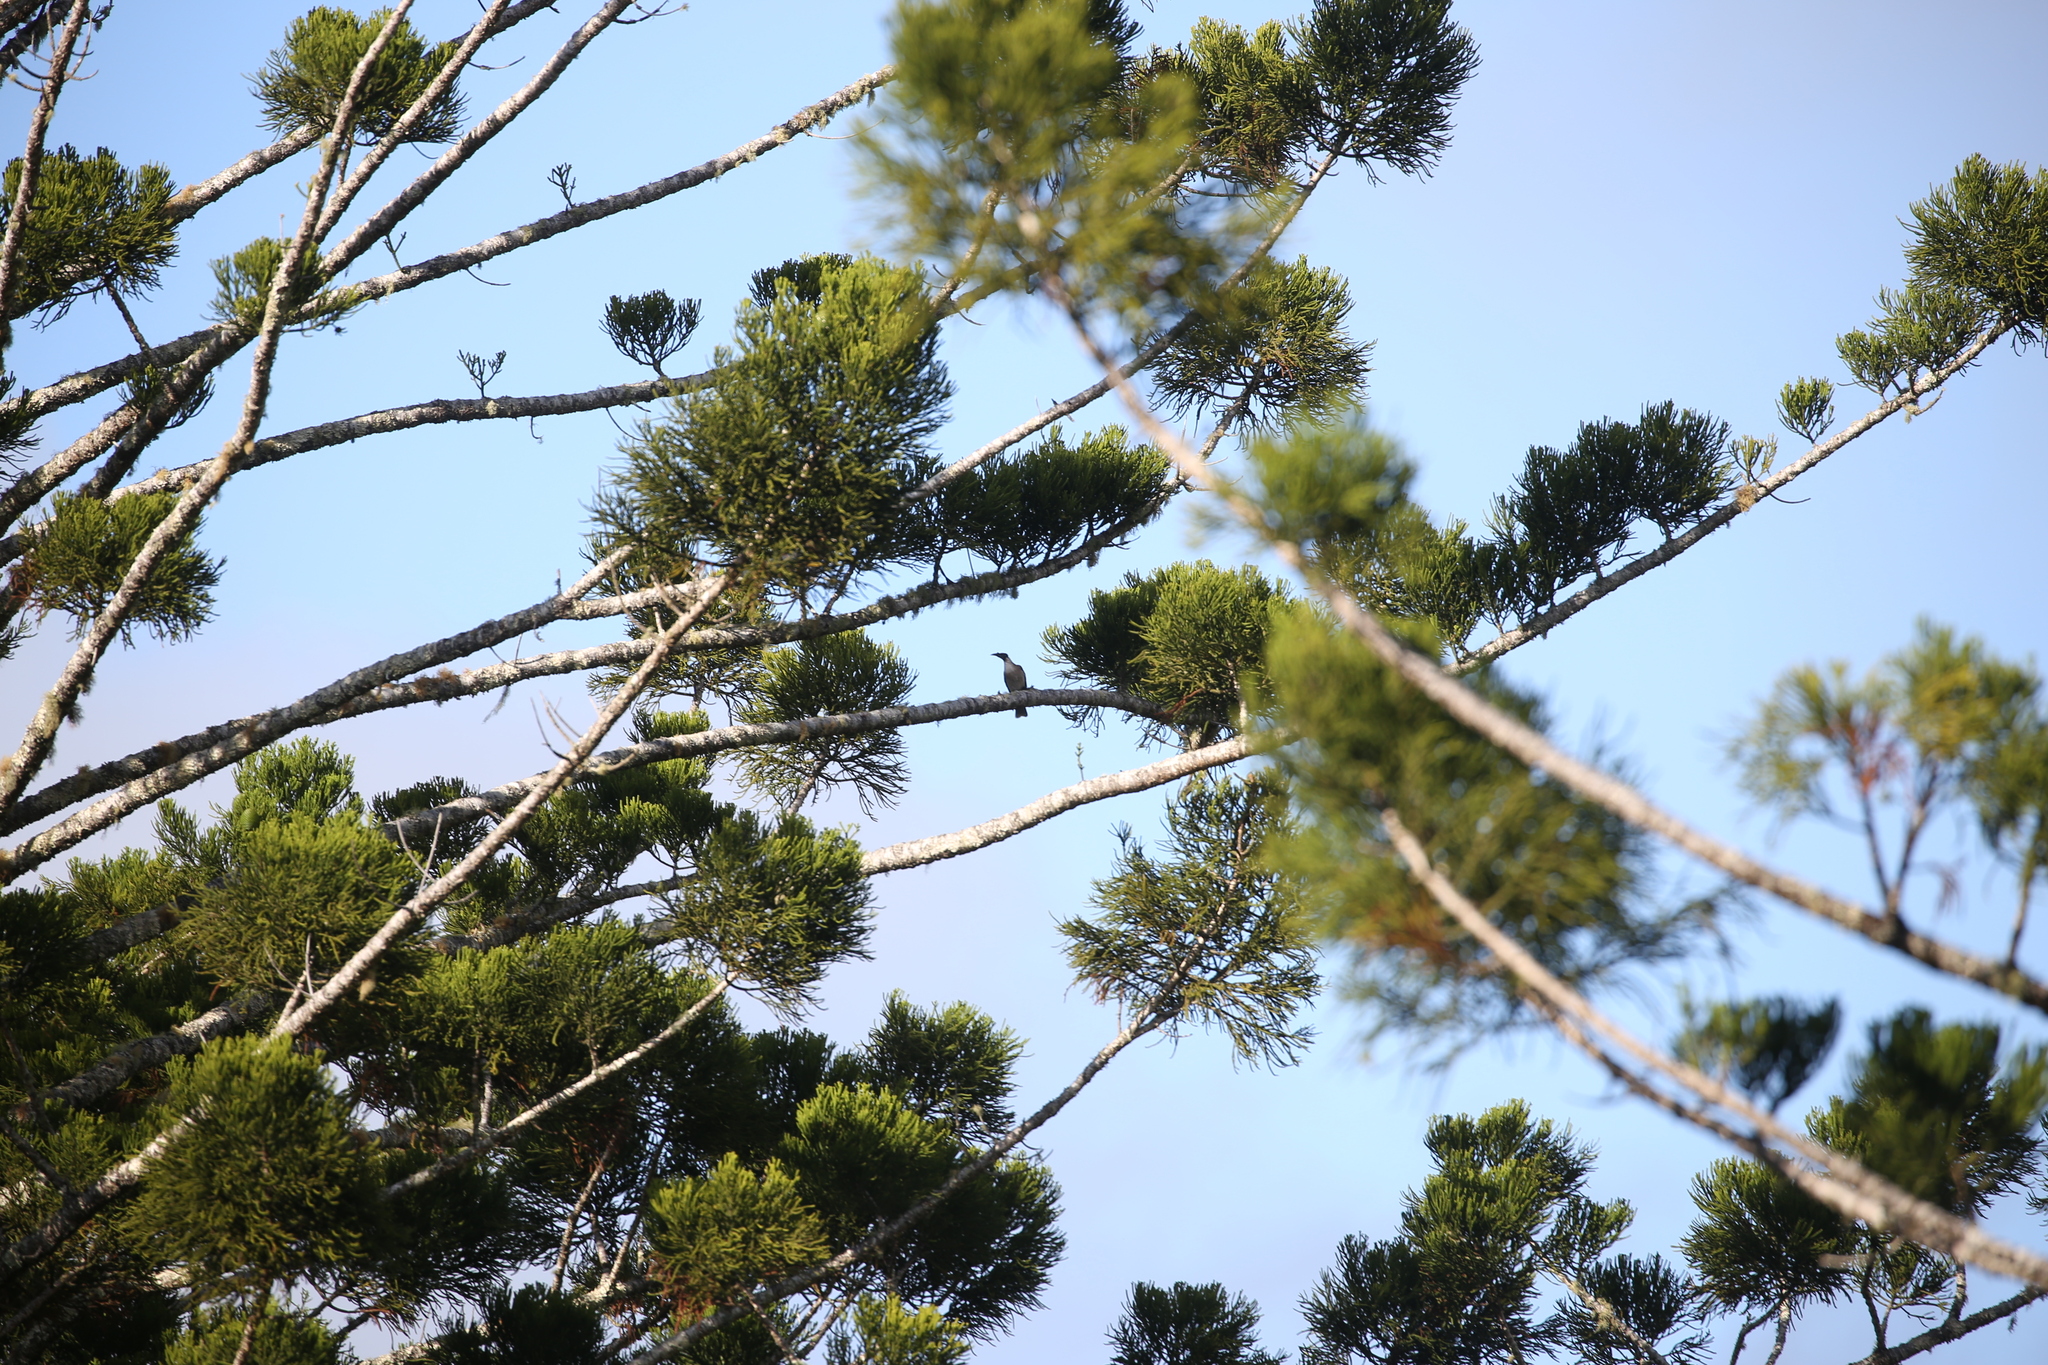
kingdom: Animalia
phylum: Chordata
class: Aves
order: Passeriformes
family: Meliphagidae
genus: Philemon
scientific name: Philemon corniculatus
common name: Noisy friarbird
